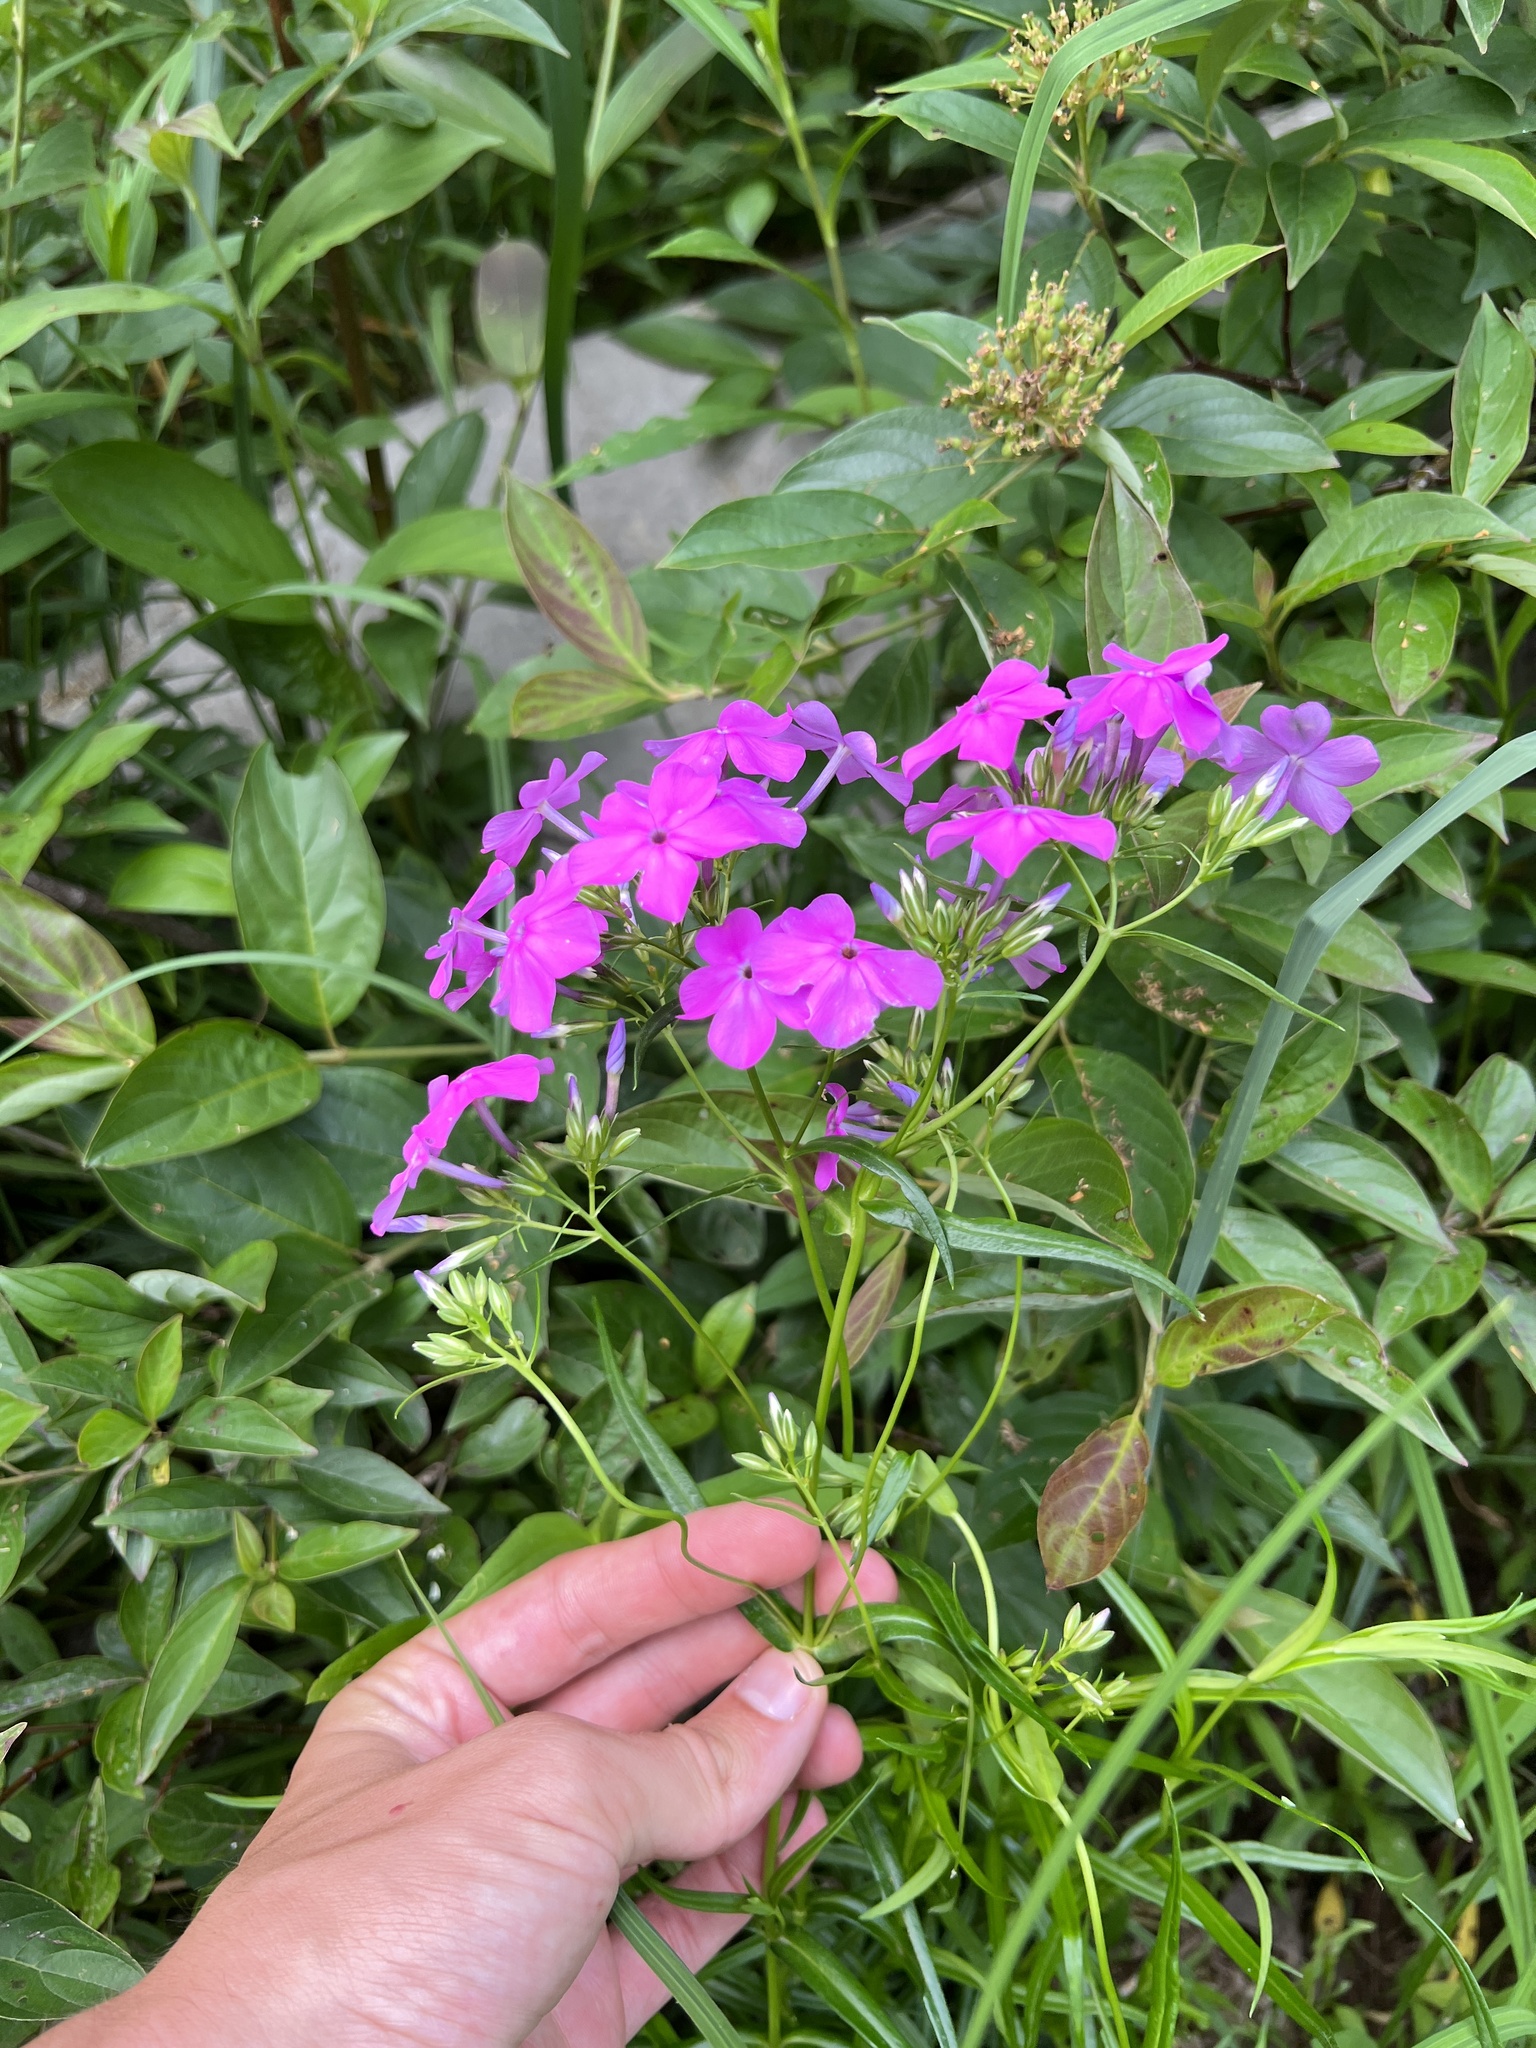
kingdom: Plantae
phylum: Tracheophyta
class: Magnoliopsida
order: Ericales
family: Polemoniaceae
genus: Phlox
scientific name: Phlox glaberrima
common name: Smooth phlox
